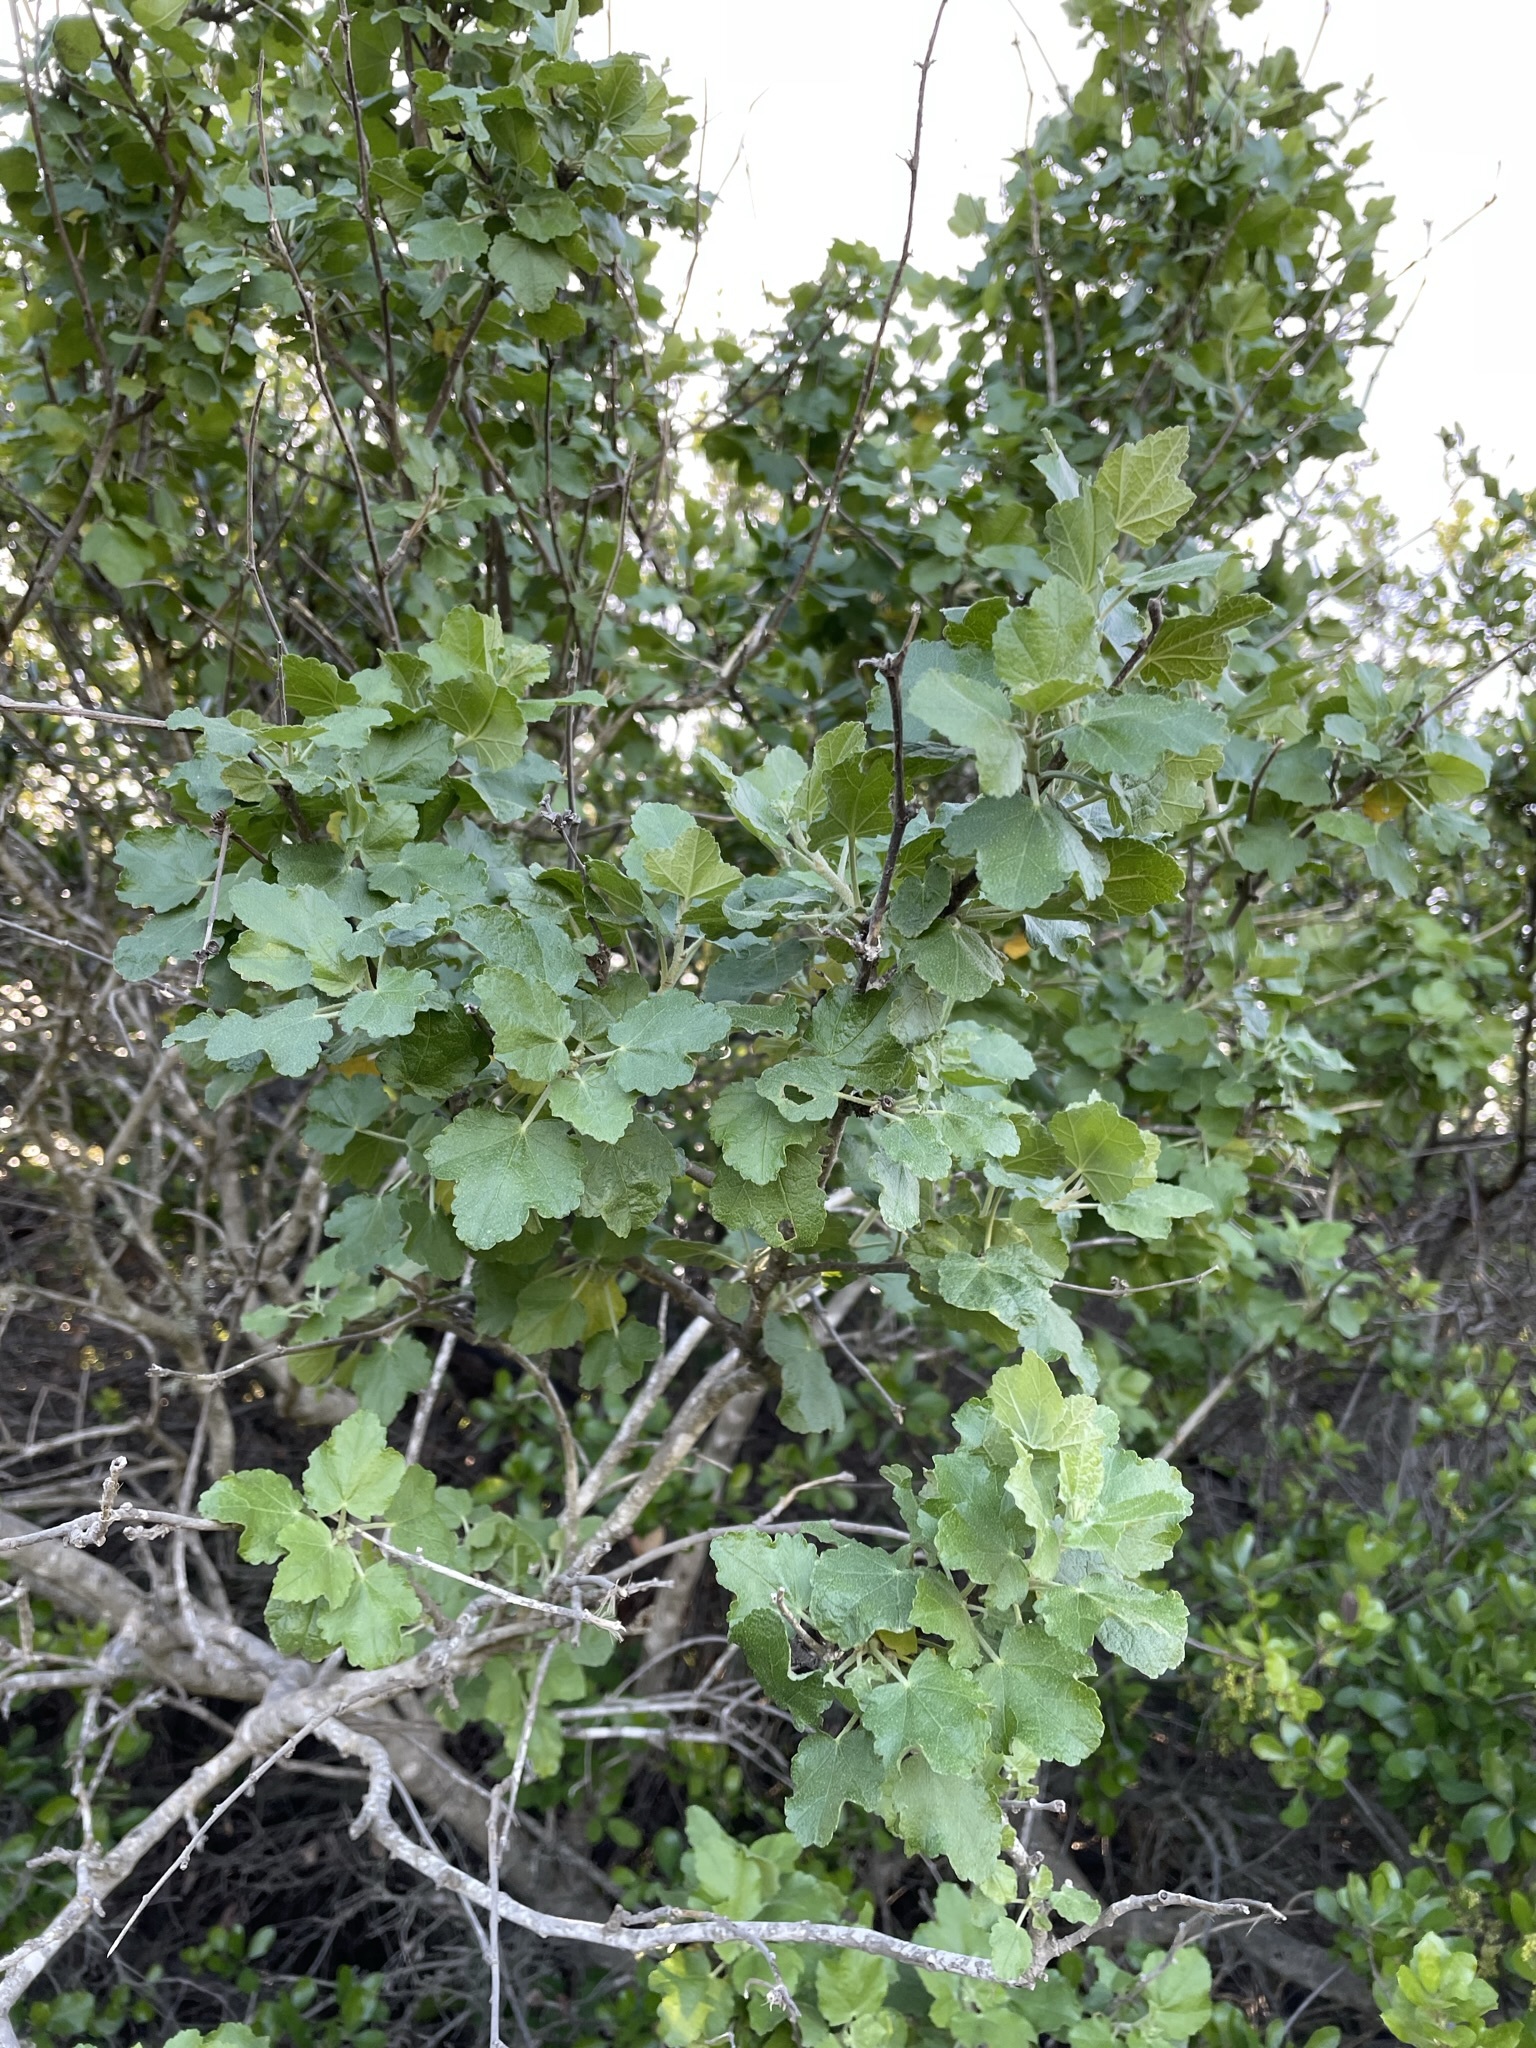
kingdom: Plantae
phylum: Tracheophyta
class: Magnoliopsida
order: Malvales
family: Malvaceae
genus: Malacothamnus
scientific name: Malacothamnus fasciculatus
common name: Sant cruz island bush-mallow
